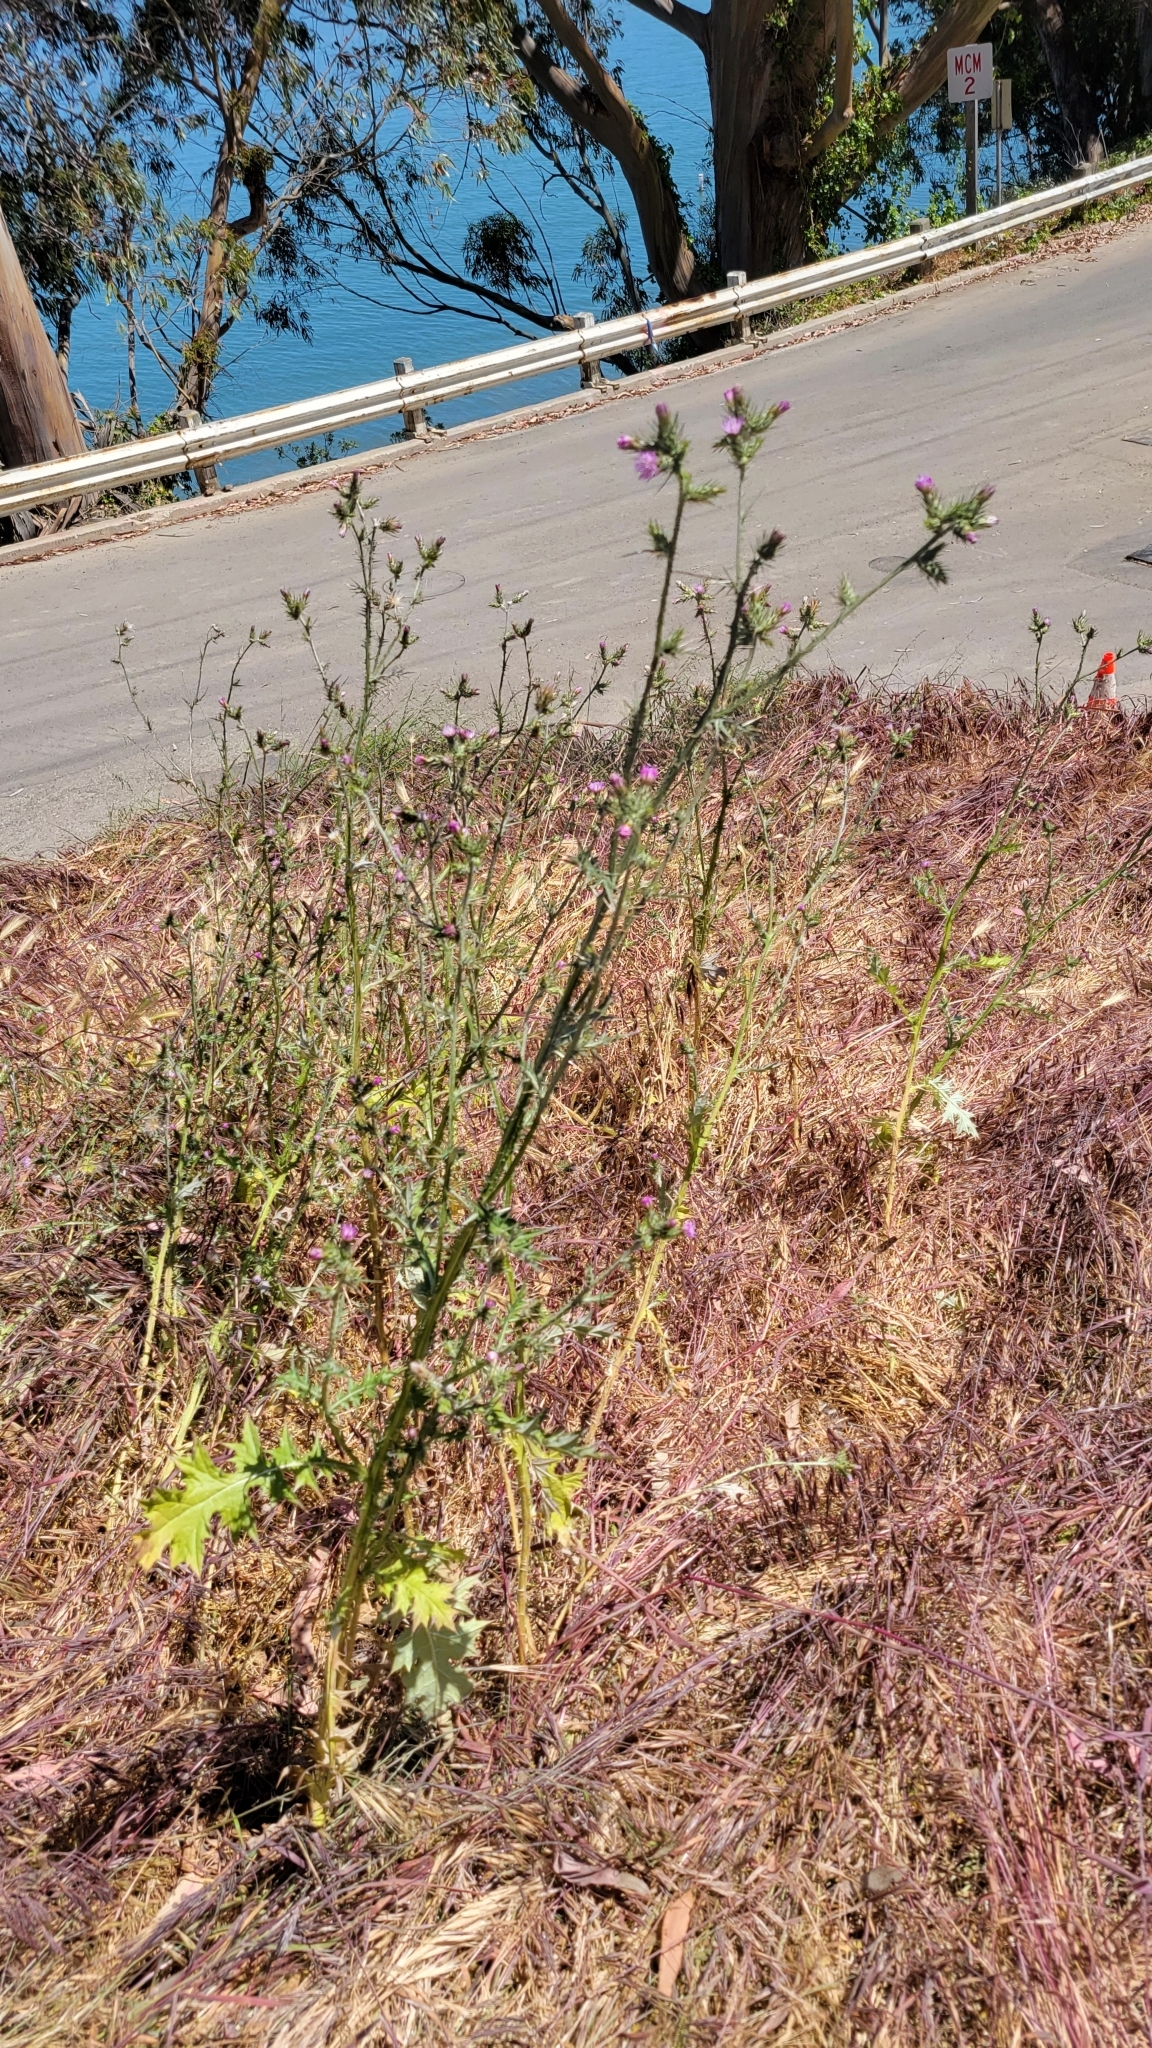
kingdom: Plantae
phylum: Tracheophyta
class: Magnoliopsida
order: Asterales
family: Asteraceae
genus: Carduus
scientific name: Carduus pycnocephalus
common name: Plymouth thistle
